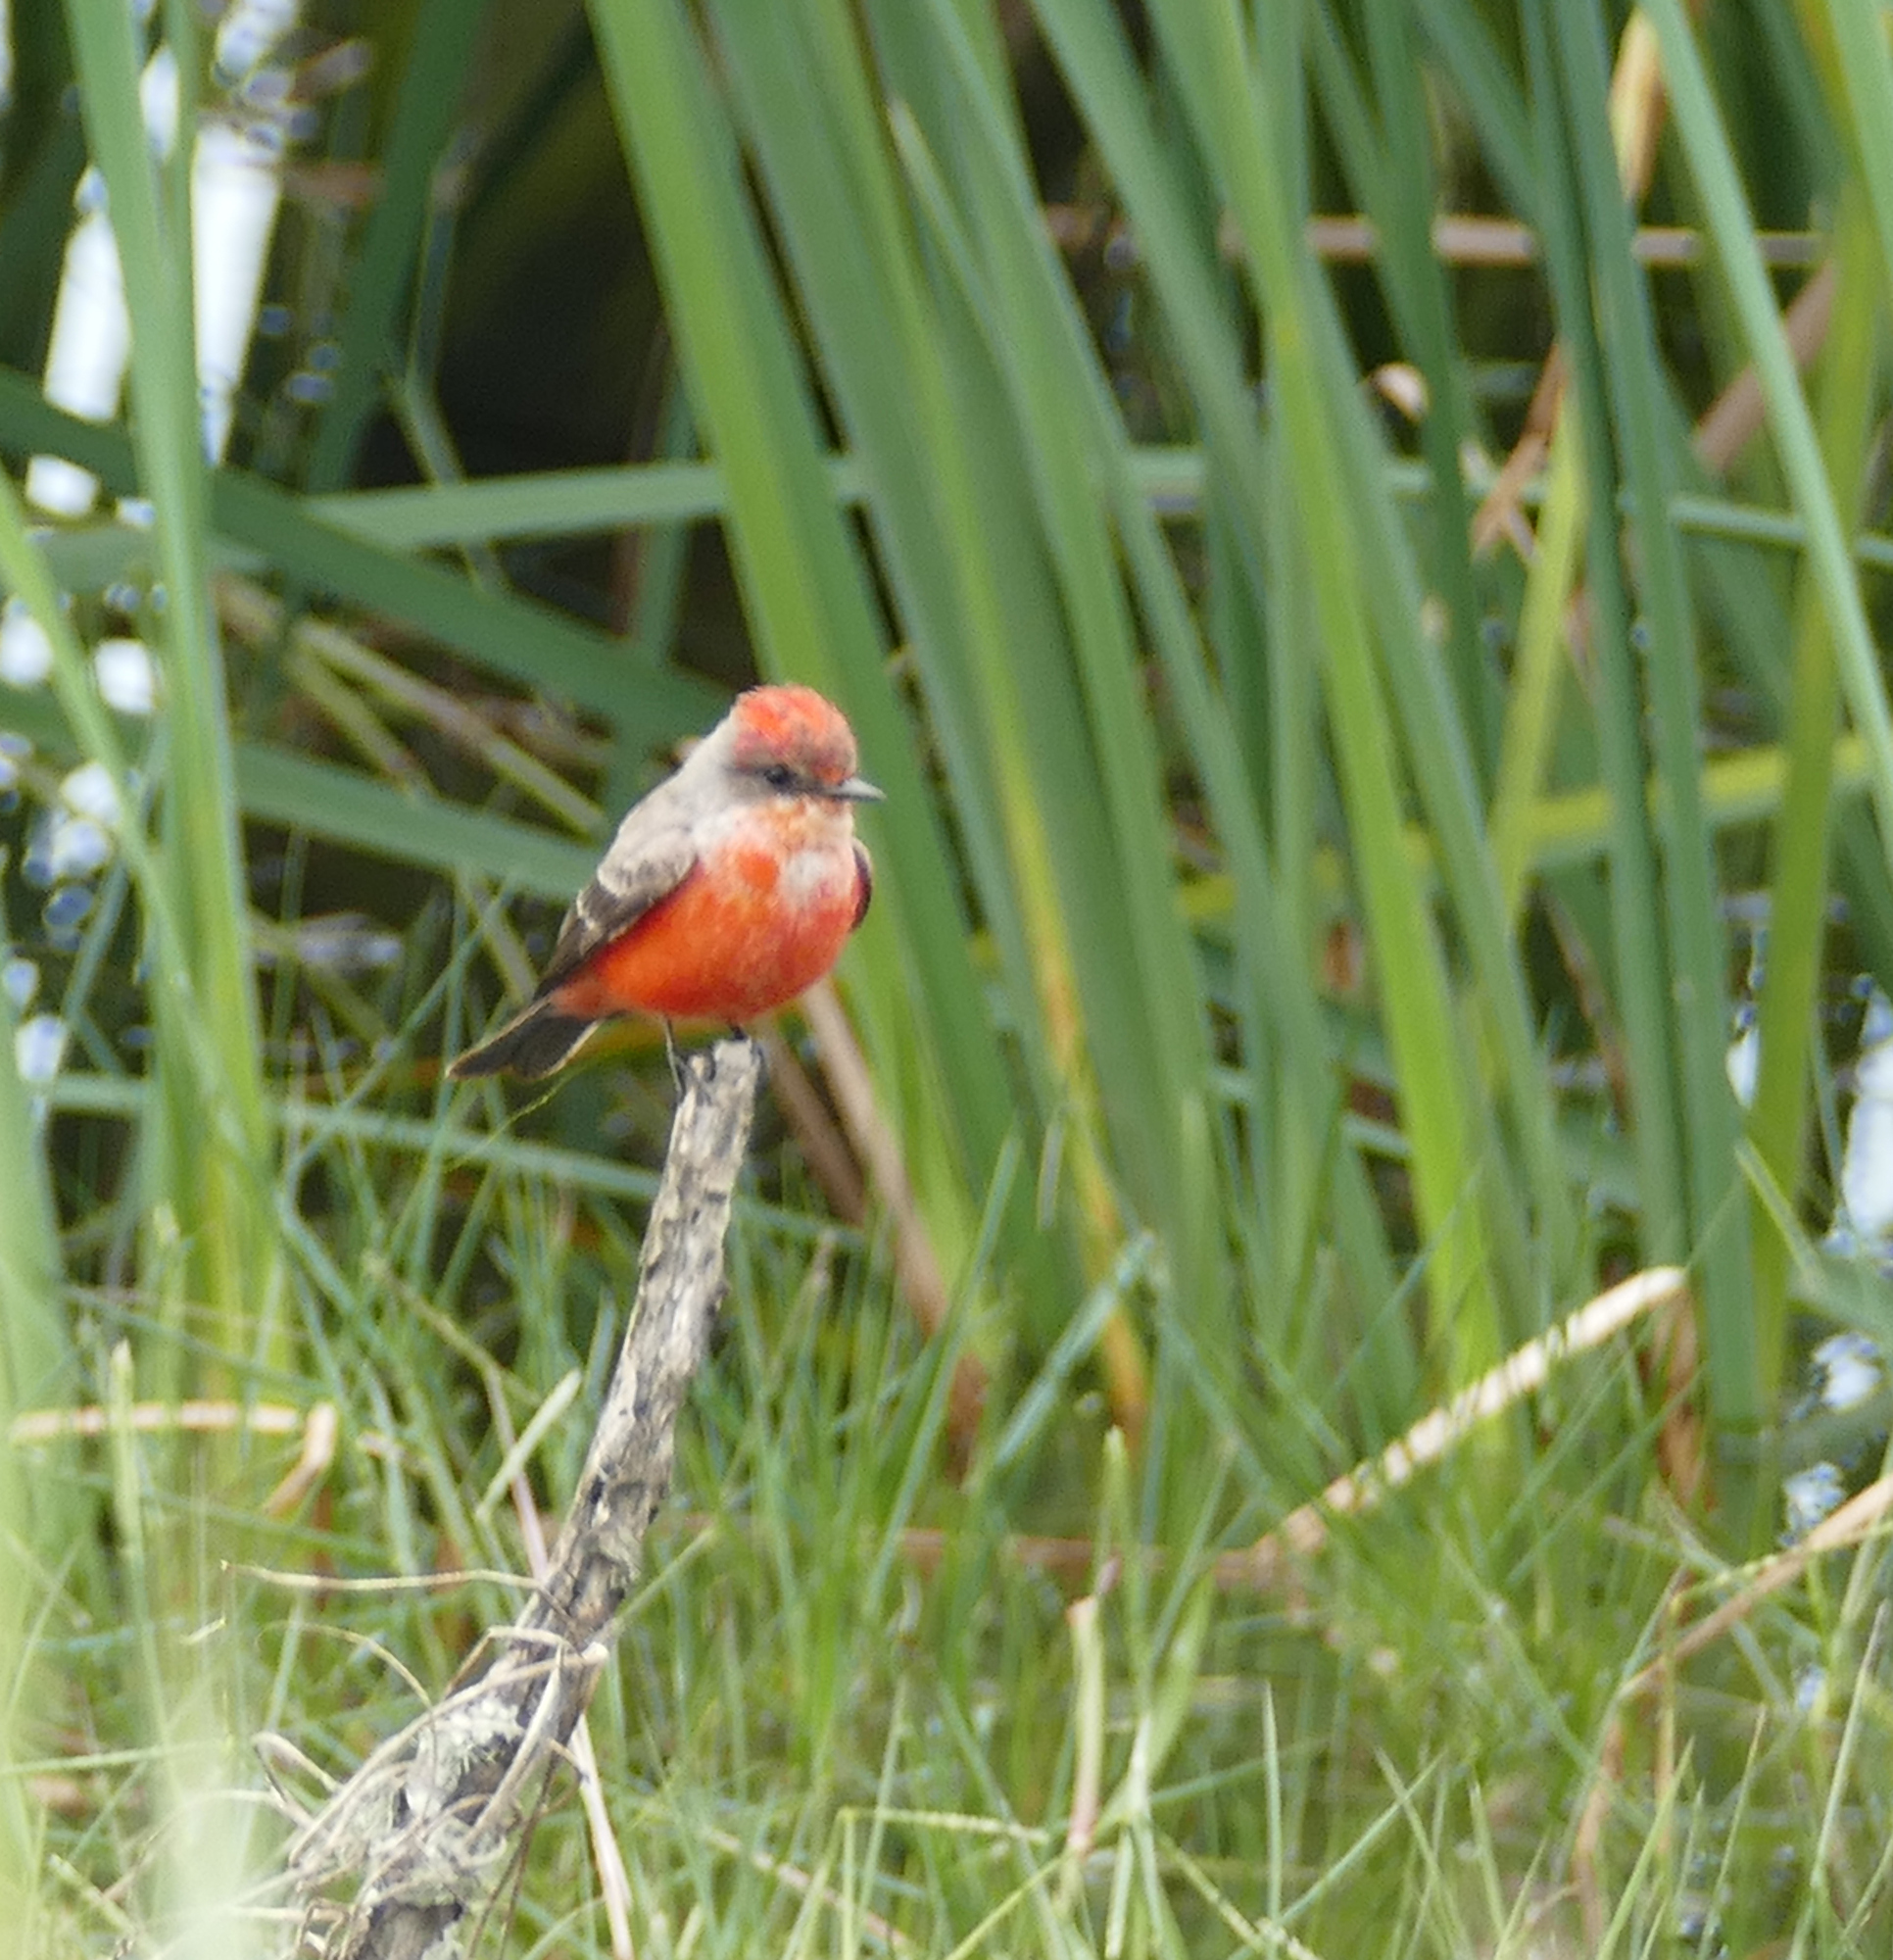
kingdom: Animalia
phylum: Chordata
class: Aves
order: Passeriformes
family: Tyrannidae
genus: Pyrocephalus
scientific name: Pyrocephalus rubinus
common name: Vermilion flycatcher
